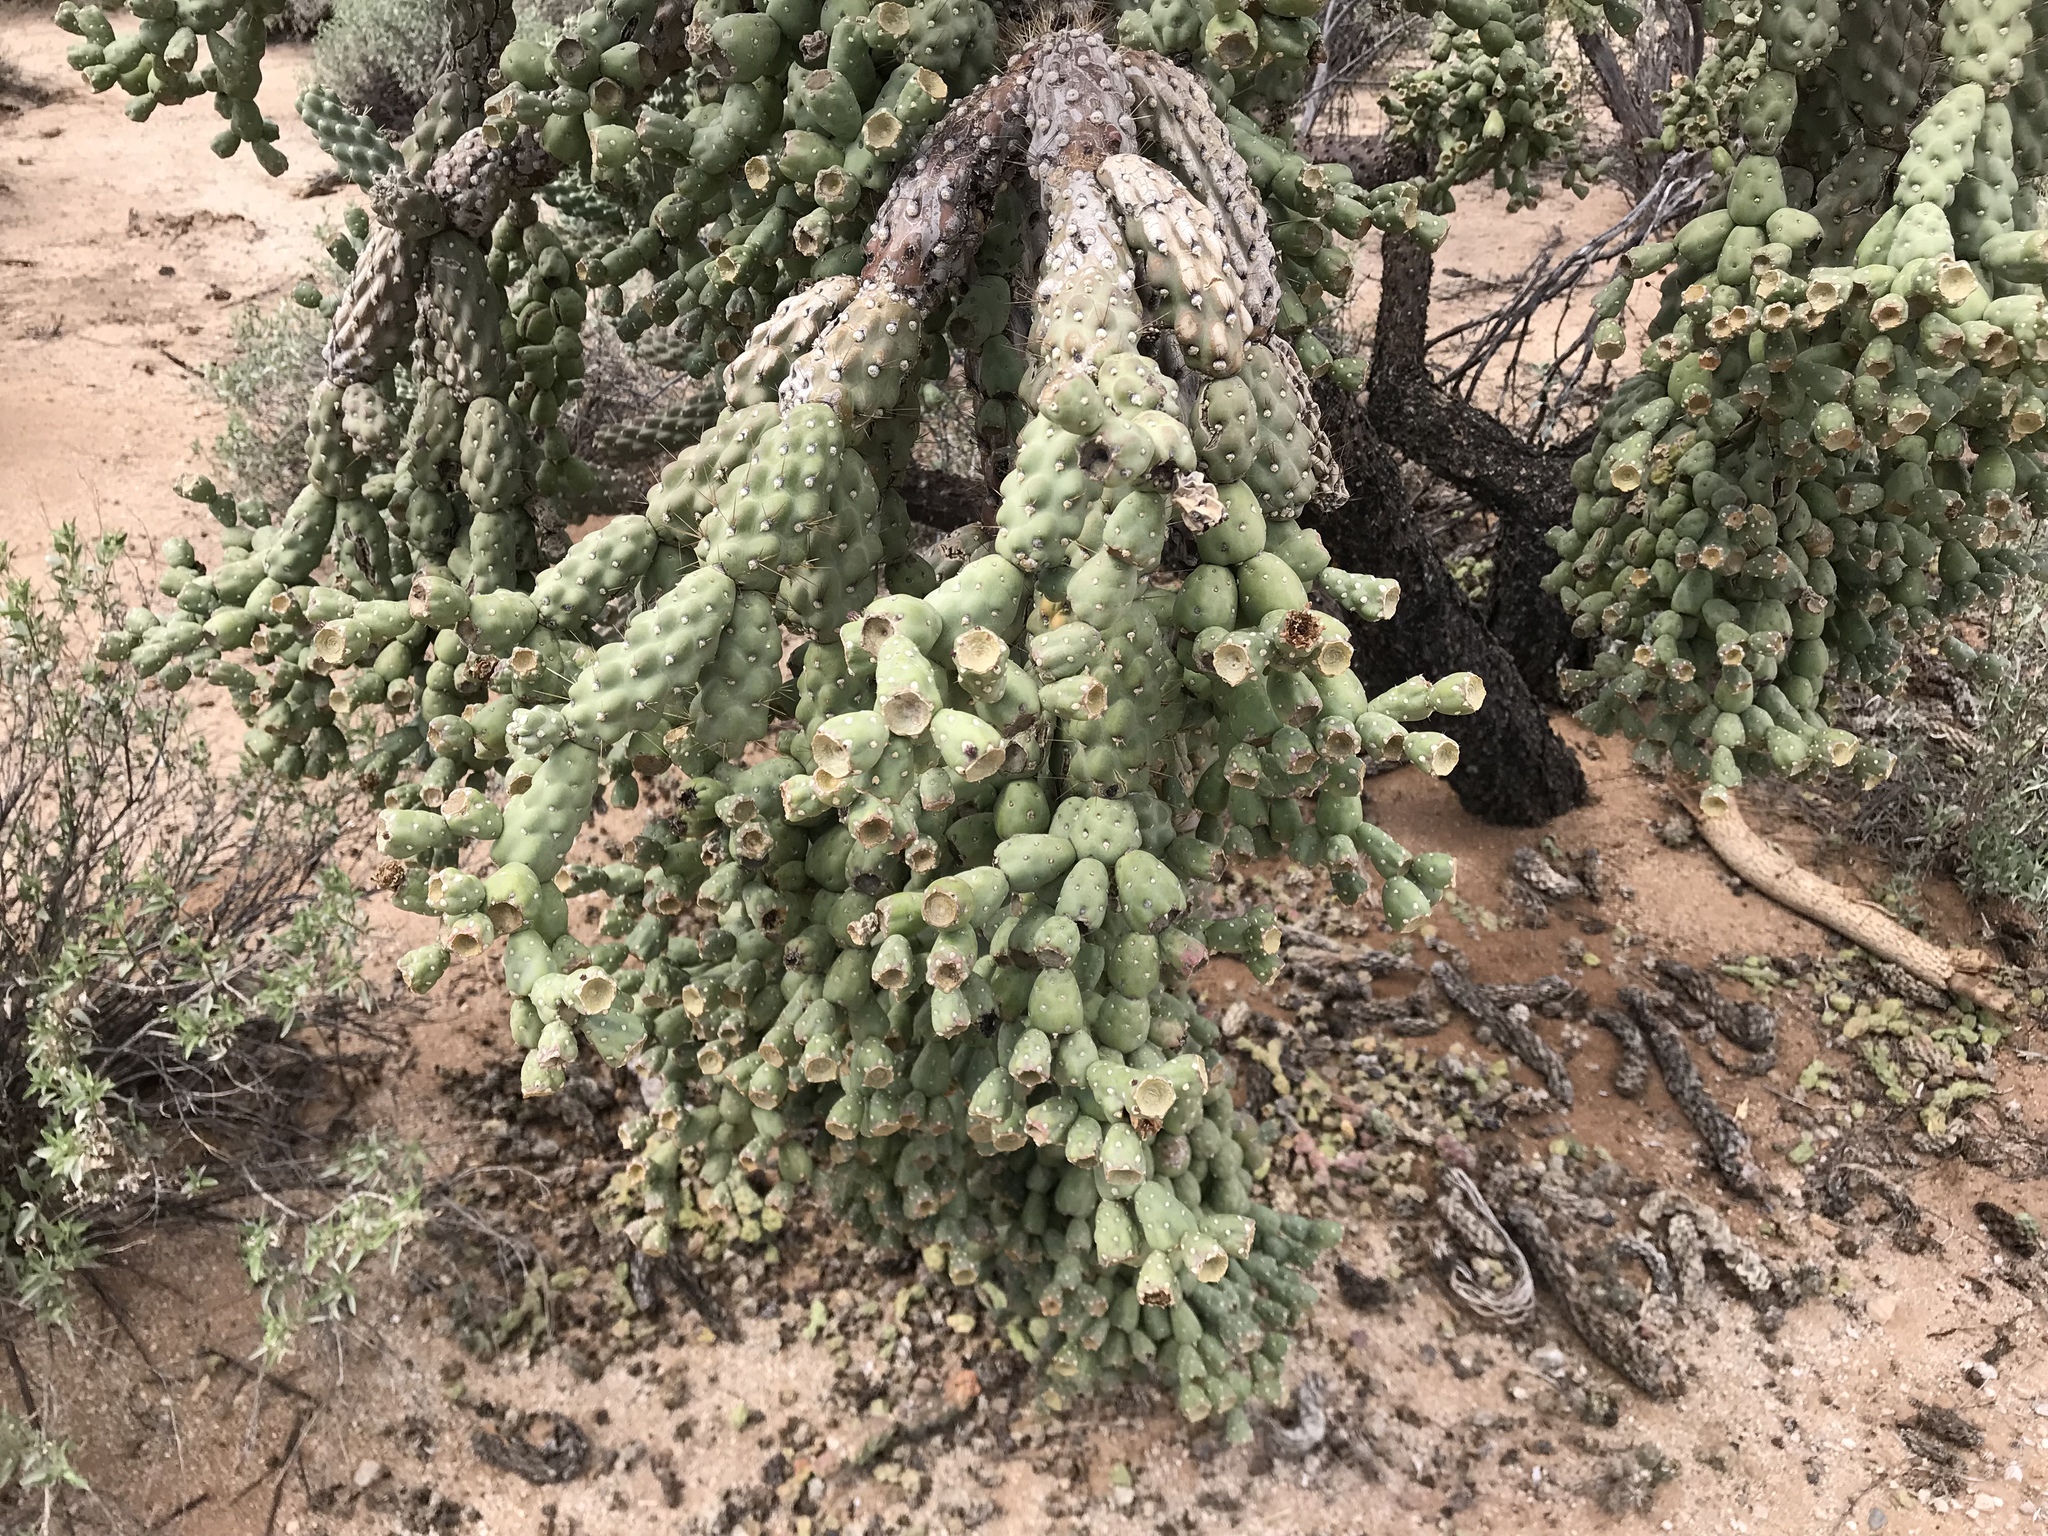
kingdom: Plantae
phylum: Tracheophyta
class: Magnoliopsida
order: Caryophyllales
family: Cactaceae
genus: Cylindropuntia
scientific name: Cylindropuntia fulgida
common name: Jumping cholla
